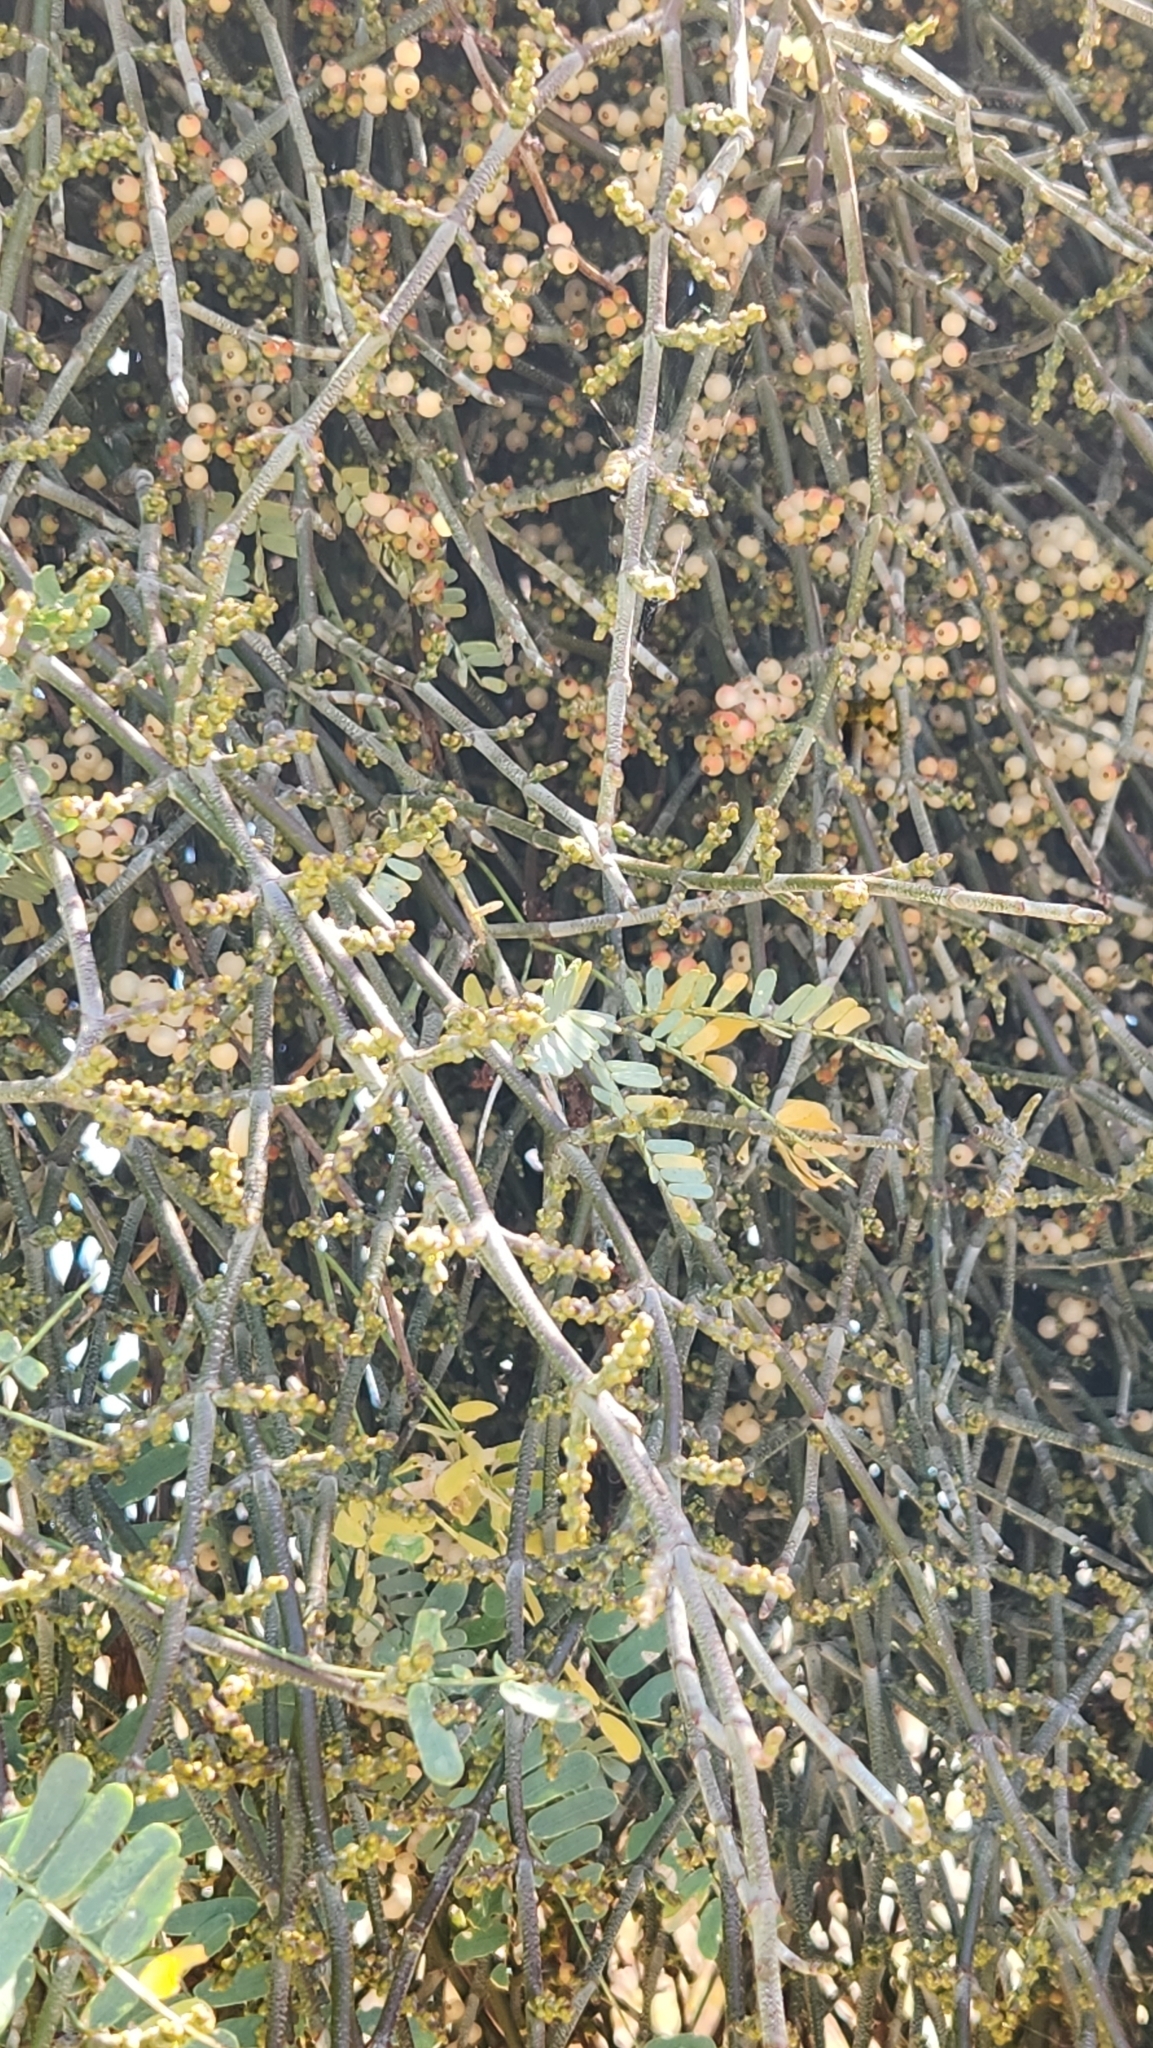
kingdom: Plantae
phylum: Tracheophyta
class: Magnoliopsida
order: Santalales
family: Viscaceae
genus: Phoradendron
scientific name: Phoradendron californicum
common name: Acacia mistletoe
